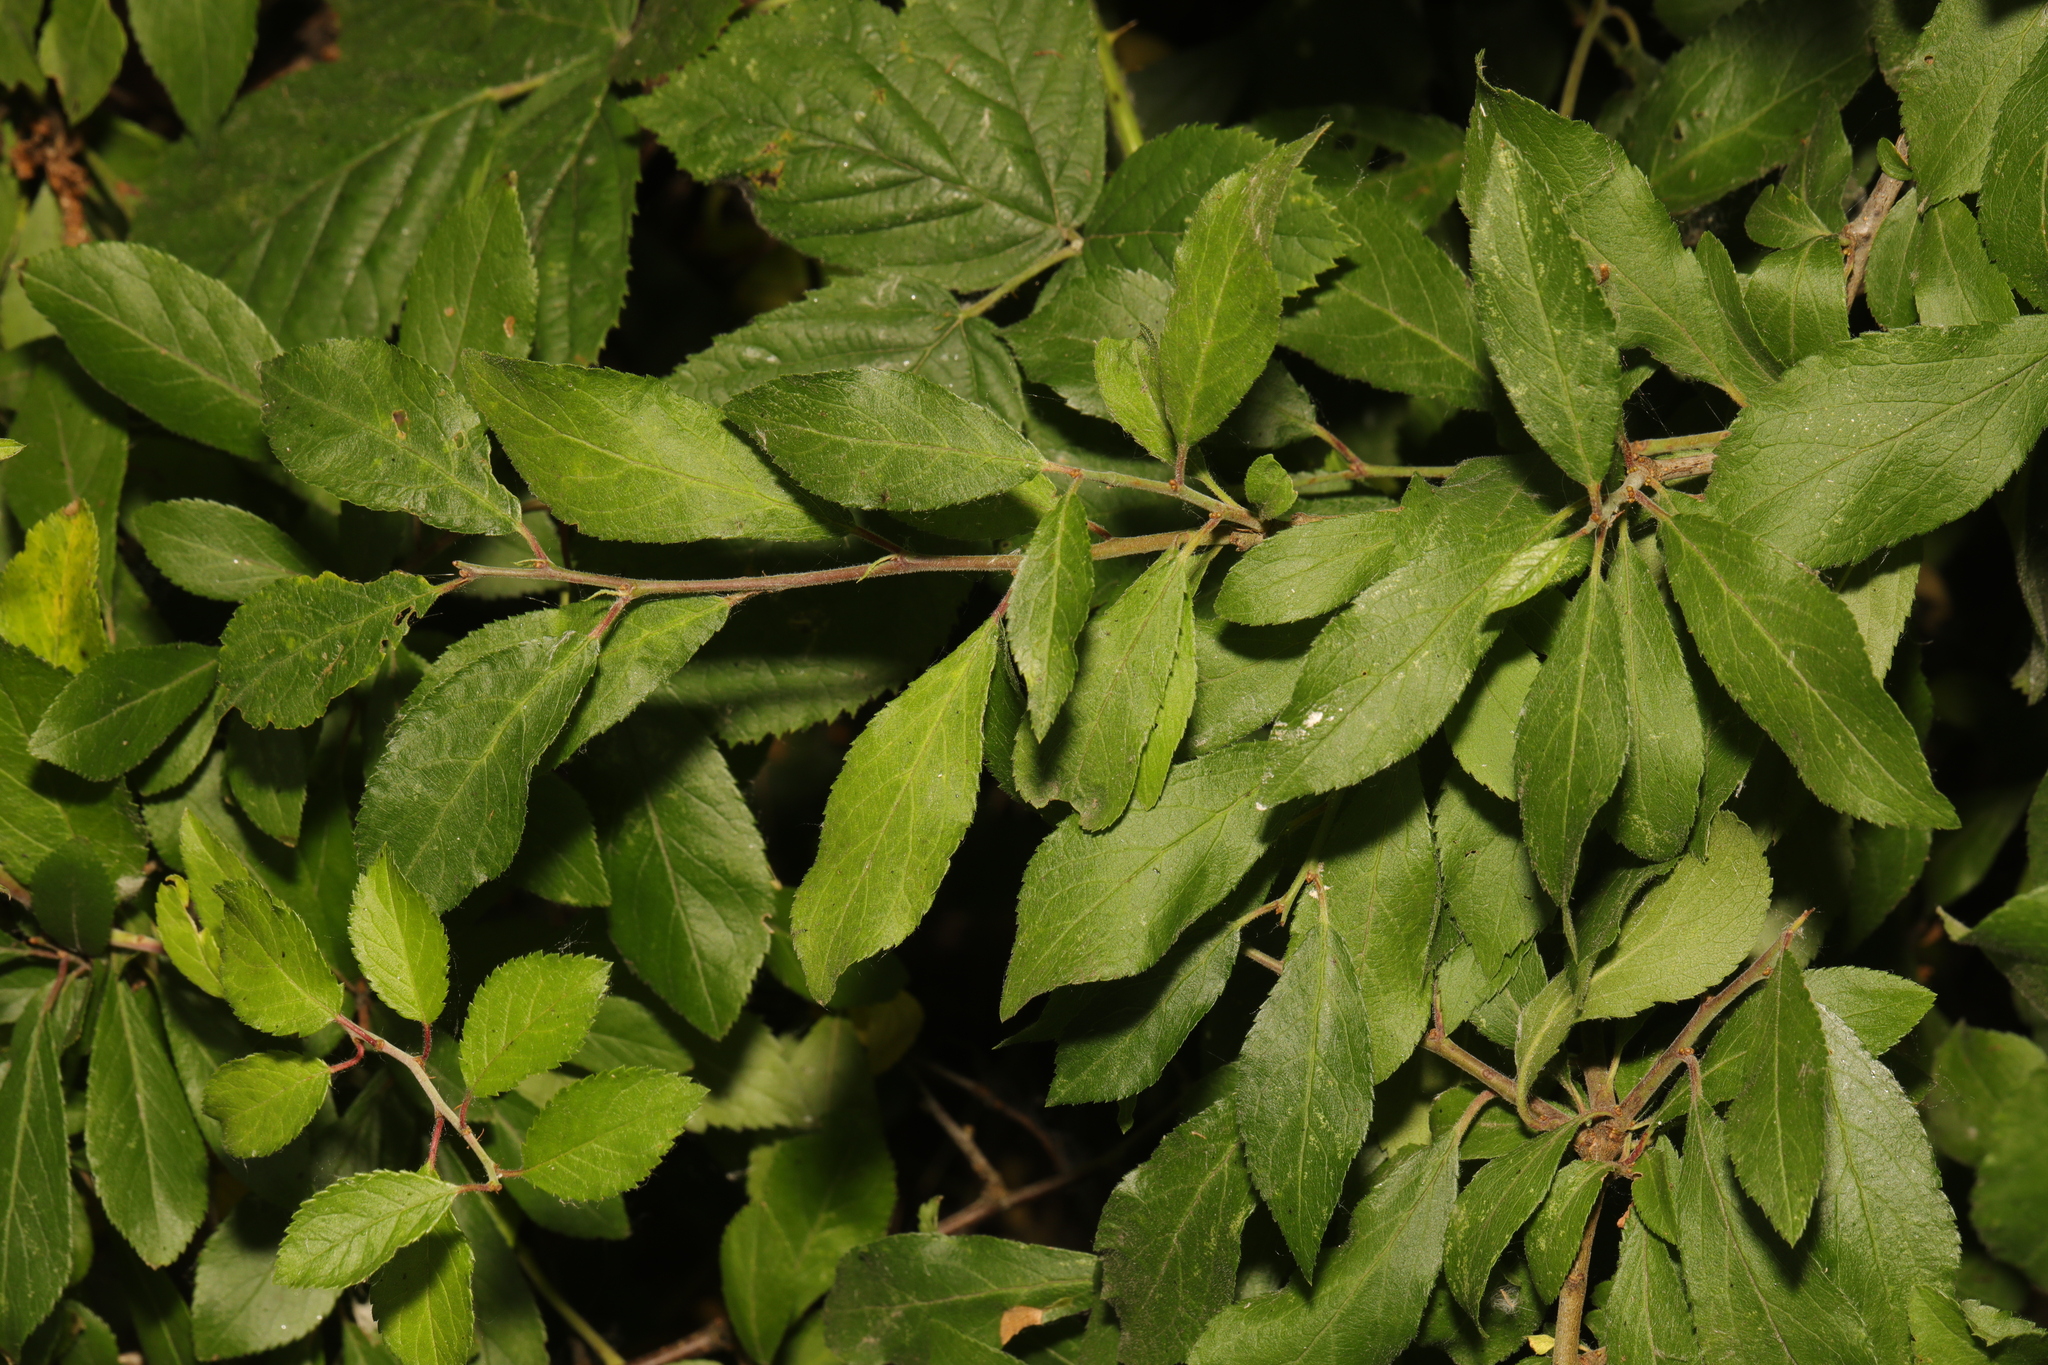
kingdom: Plantae
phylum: Tracheophyta
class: Magnoliopsida
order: Rosales
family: Rosaceae
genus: Prunus
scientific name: Prunus spinosa
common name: Blackthorn
